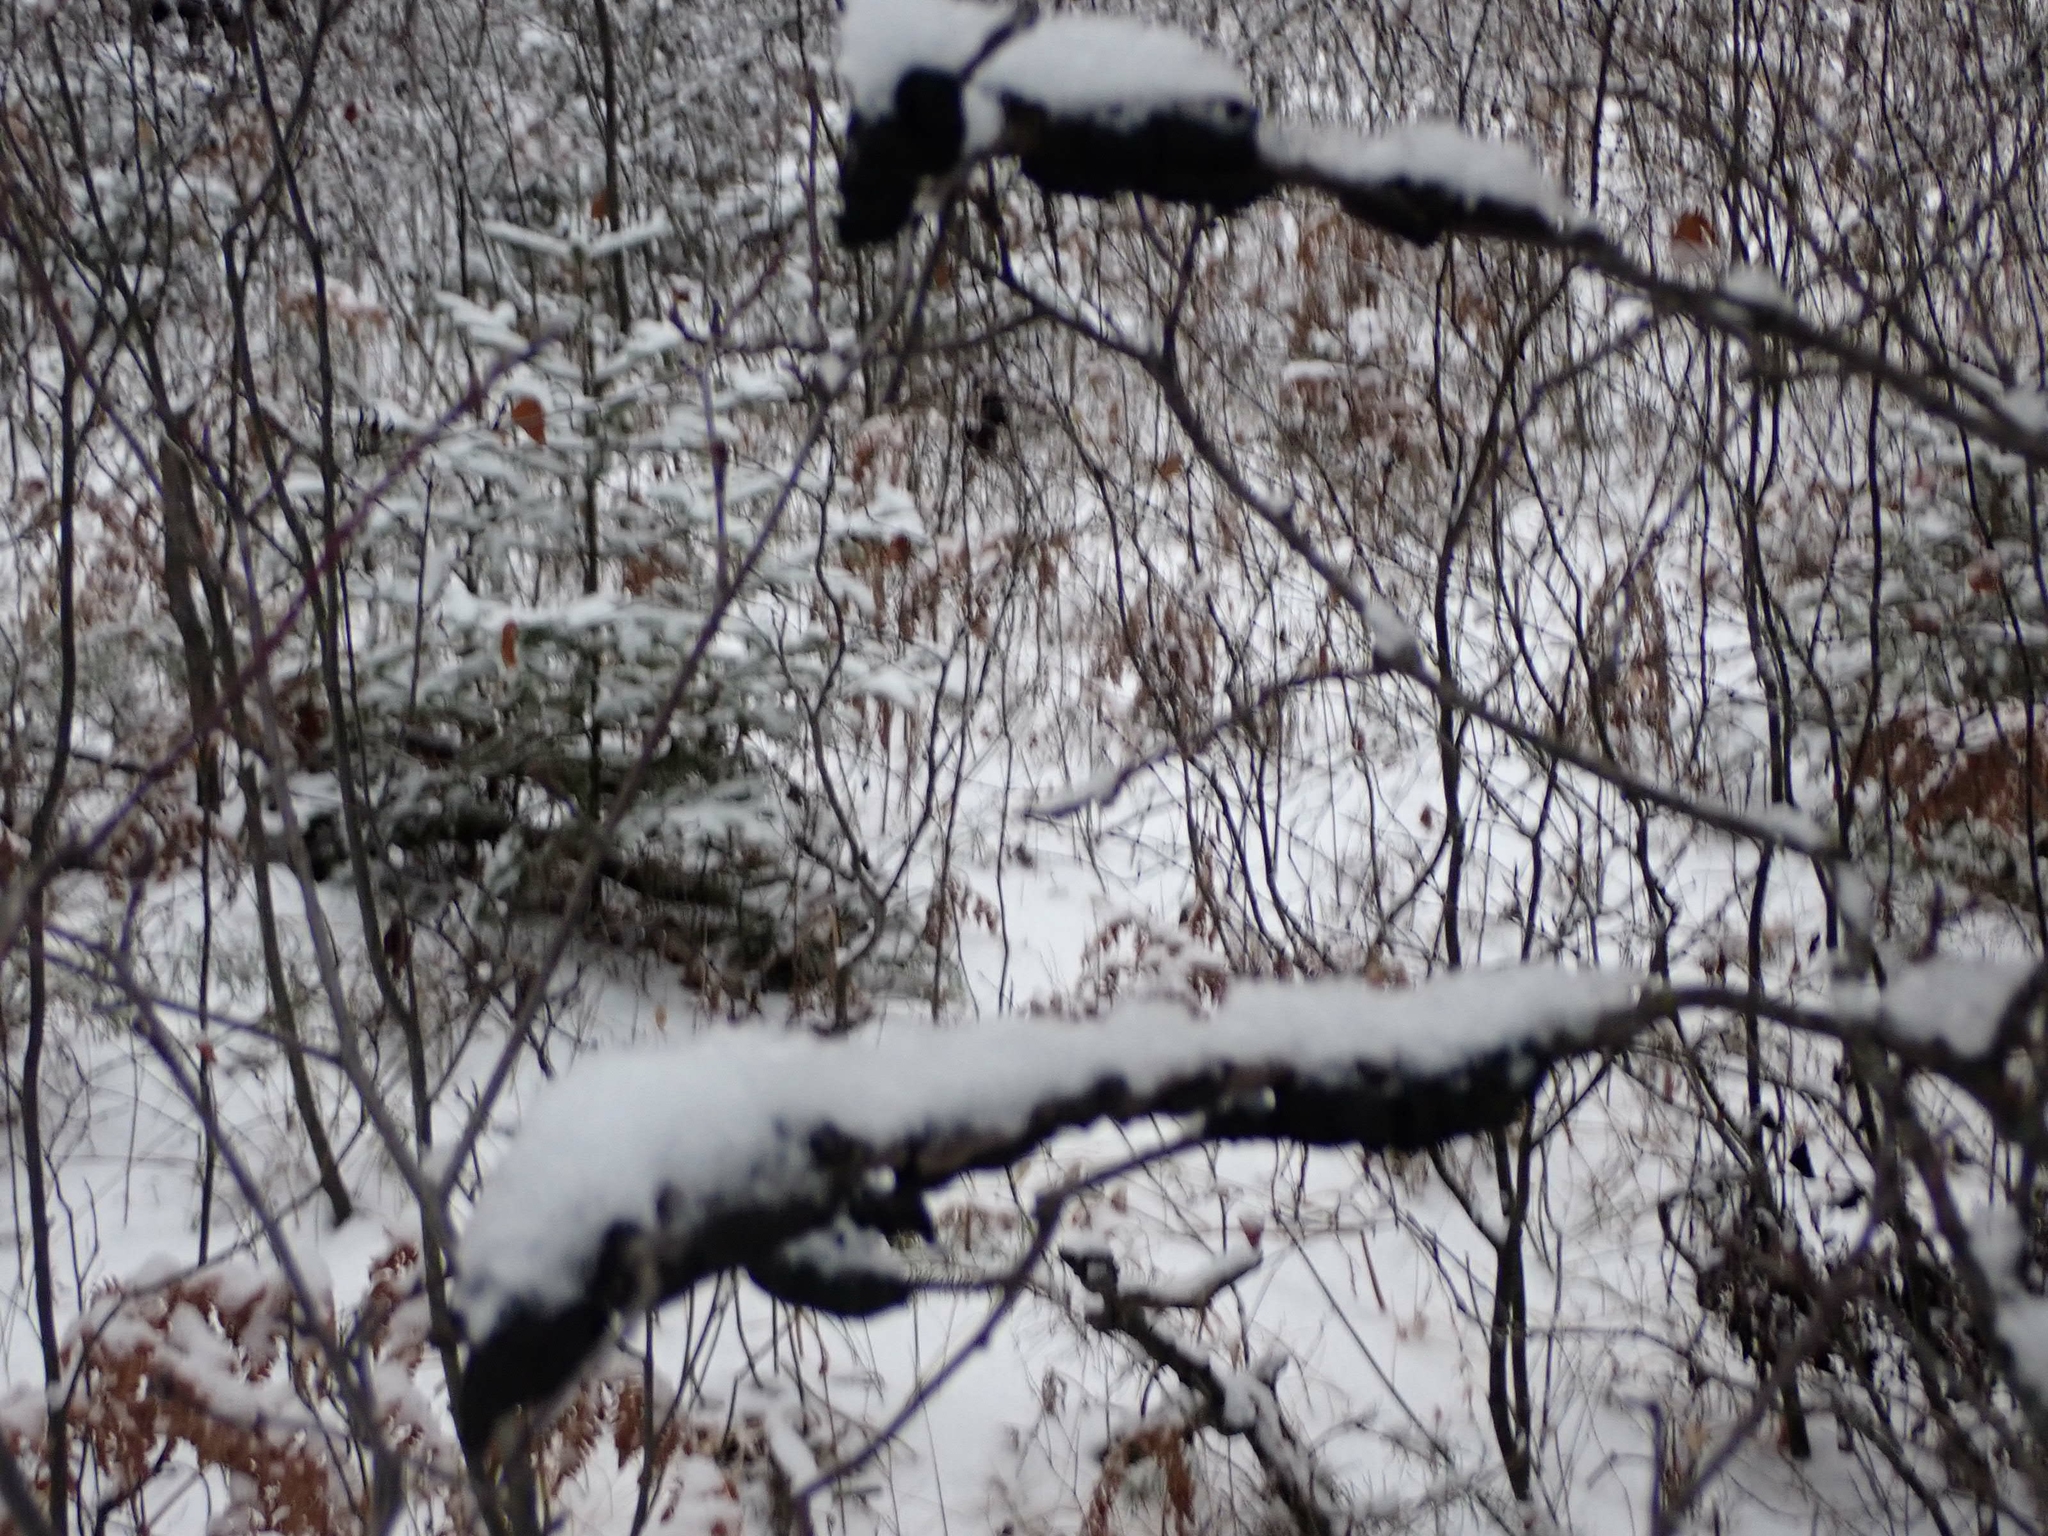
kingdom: Fungi
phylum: Ascomycota
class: Dothideomycetes
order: Venturiales
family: Venturiaceae
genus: Apiosporina
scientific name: Apiosporina morbosa
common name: Black knot
